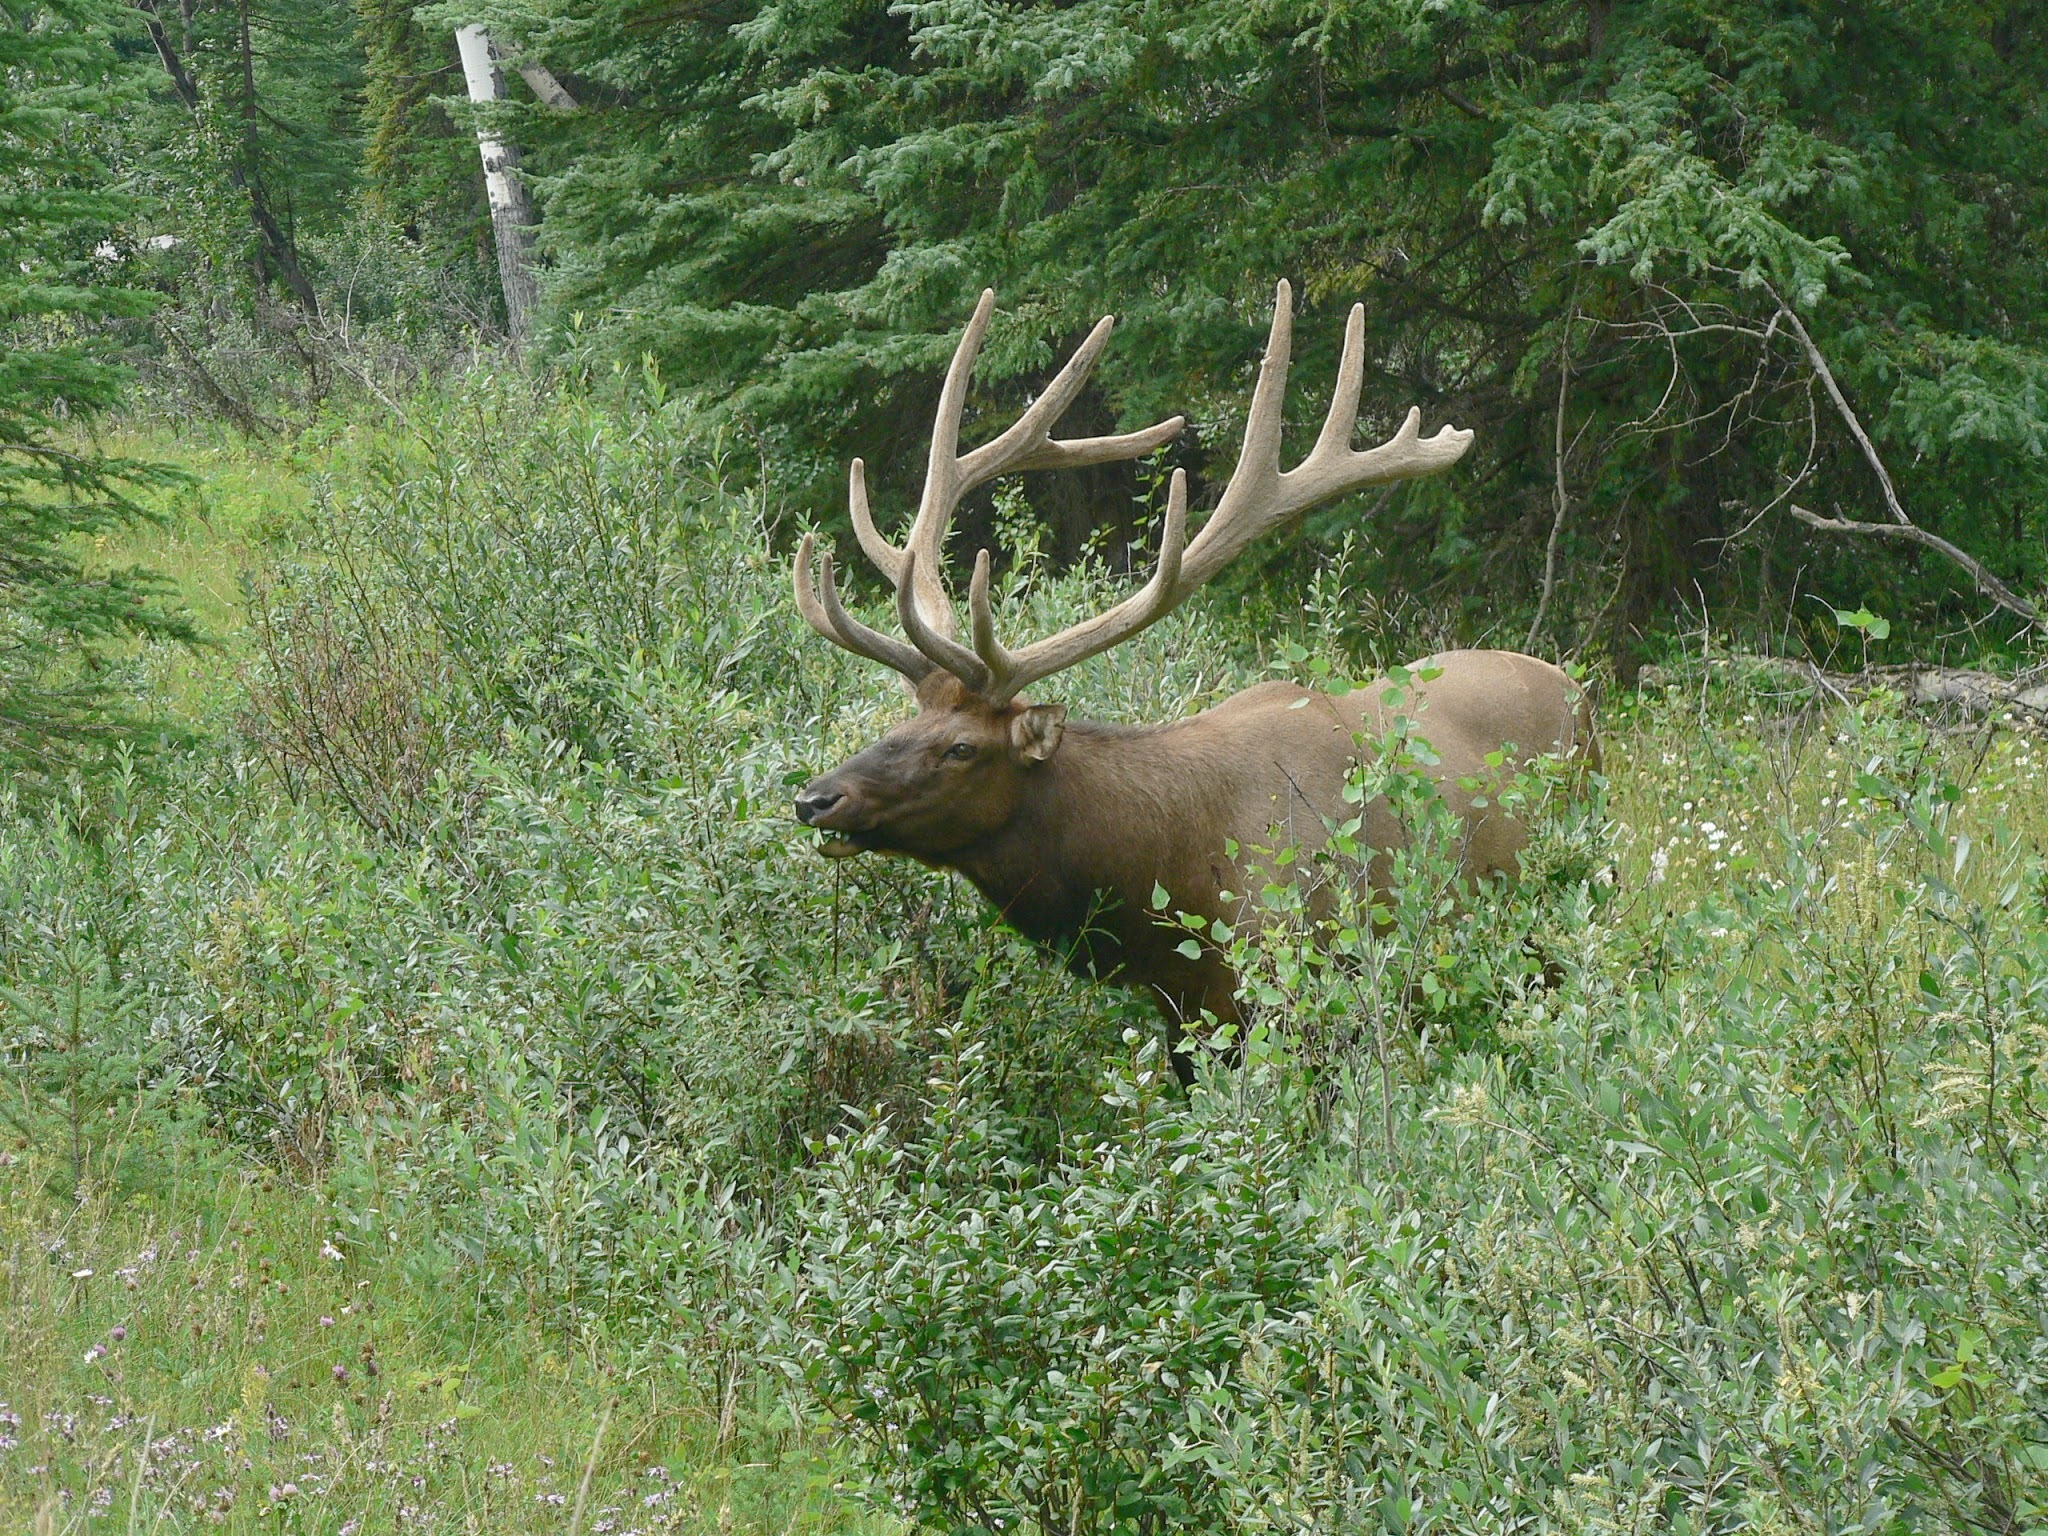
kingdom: Animalia
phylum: Chordata
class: Mammalia
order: Artiodactyla
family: Cervidae
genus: Cervus
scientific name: Cervus elaphus
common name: Red deer
